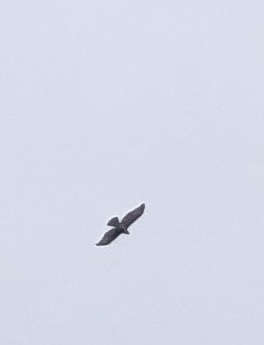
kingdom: Animalia
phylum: Chordata
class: Aves
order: Accipitriformes
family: Accipitridae
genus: Buteo
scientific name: Buteo jamaicensis
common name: Red-tailed hawk
